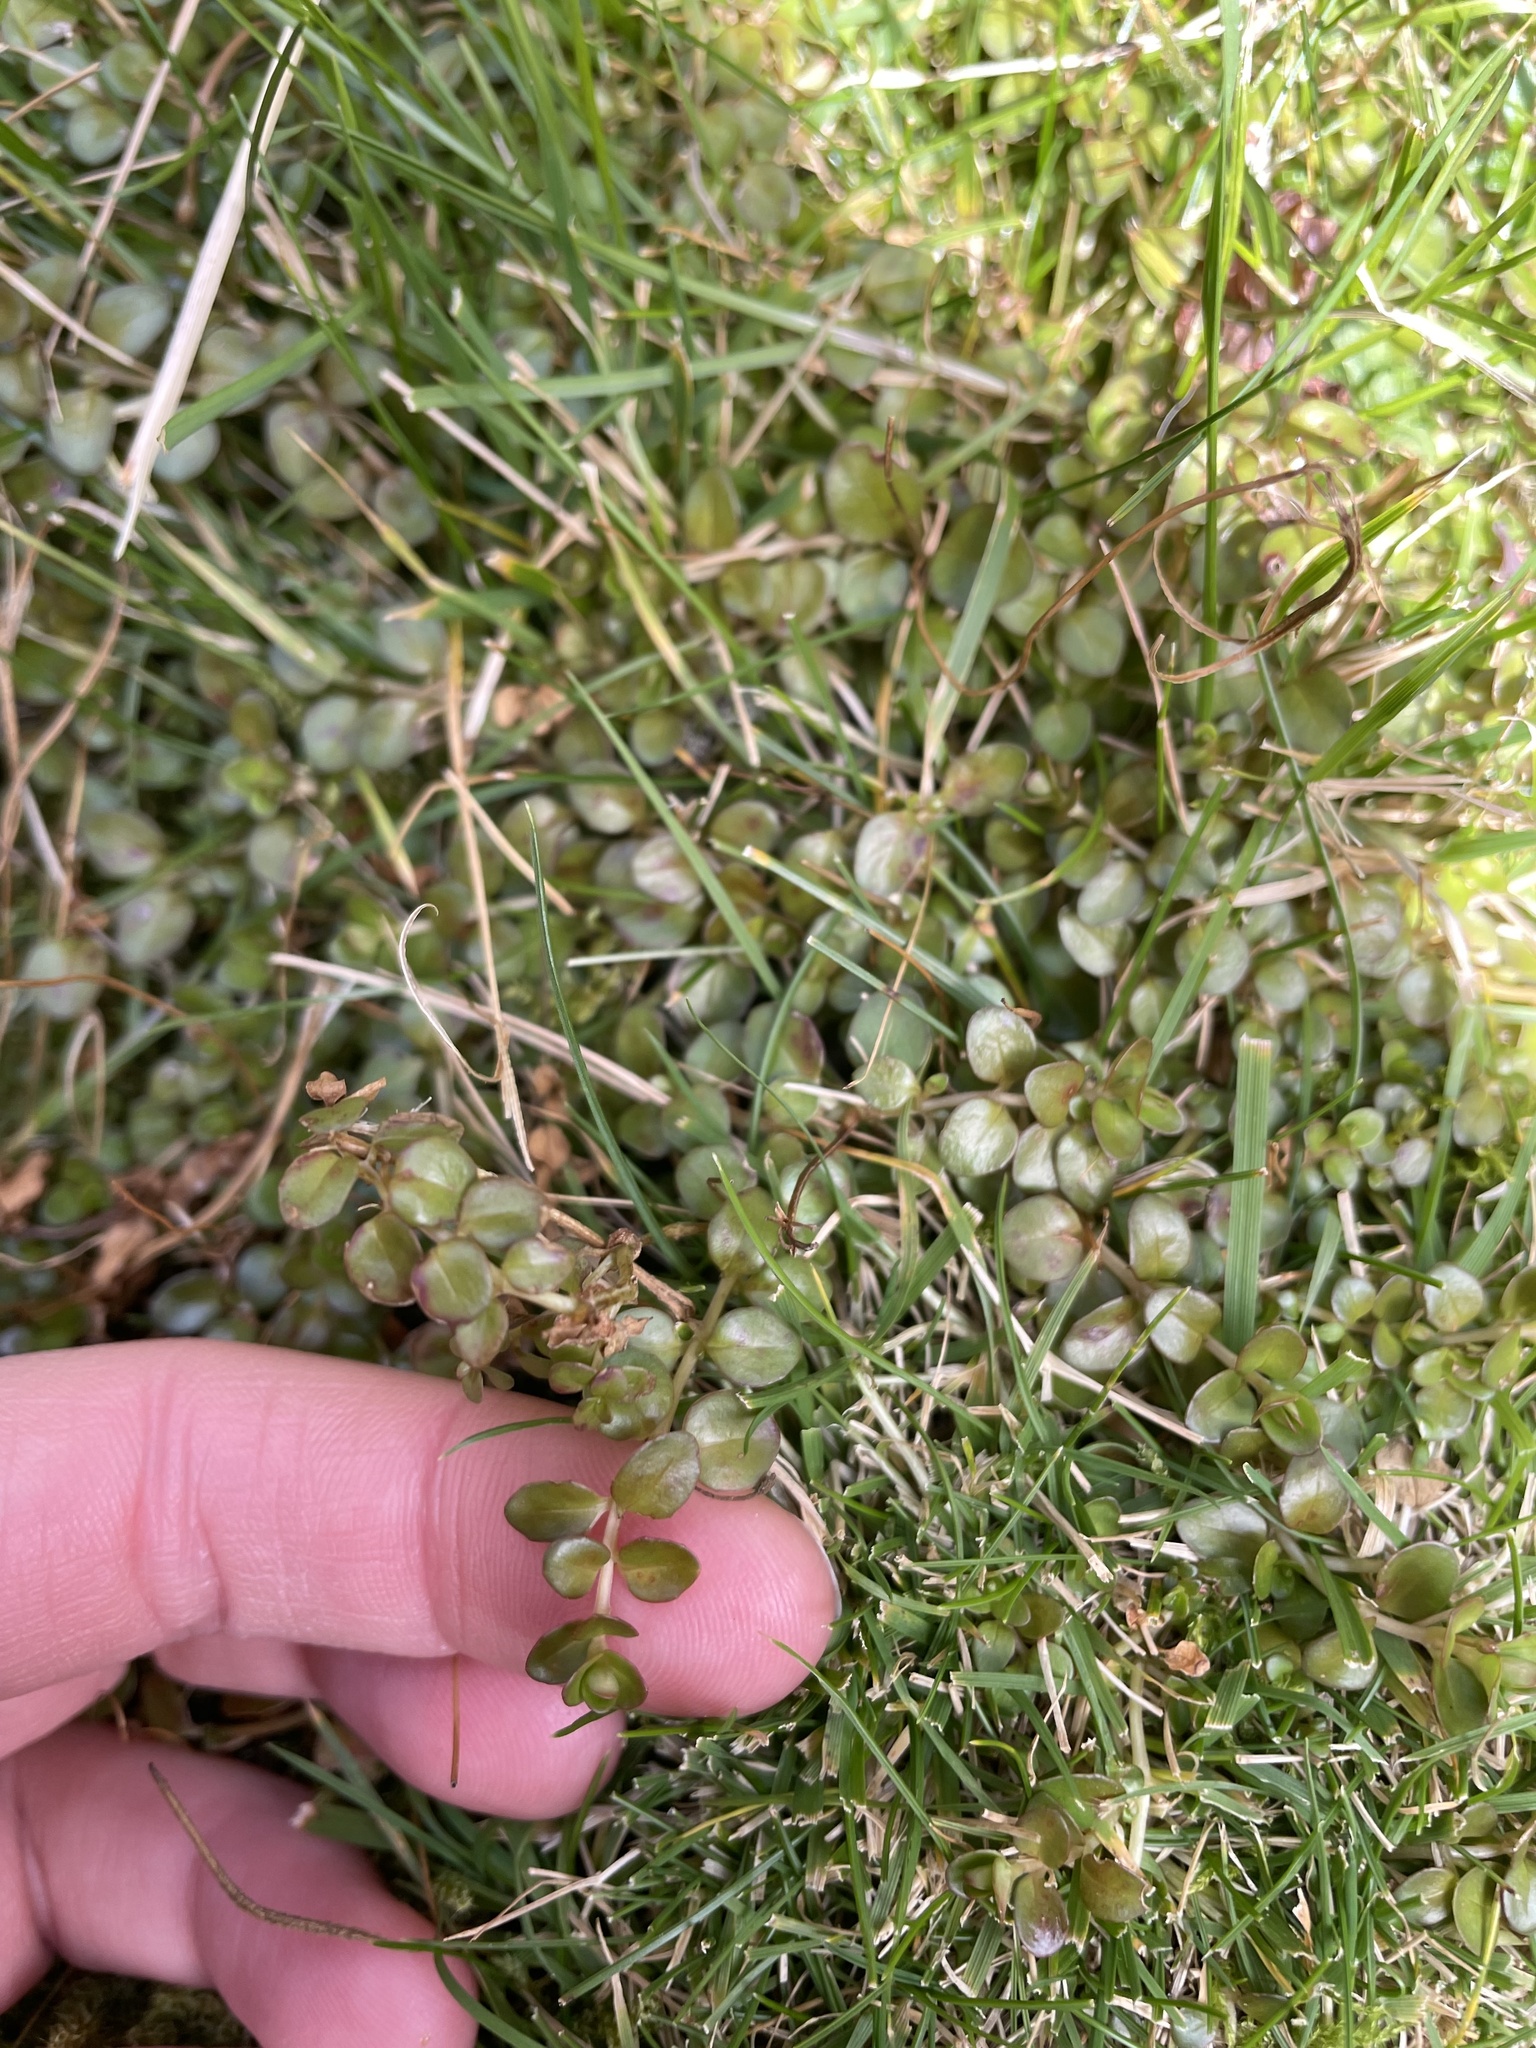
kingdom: Plantae
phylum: Tracheophyta
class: Magnoliopsida
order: Myrtales
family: Onagraceae
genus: Epilobium
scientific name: Epilobium brunnescens
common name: New zealand willowherb
